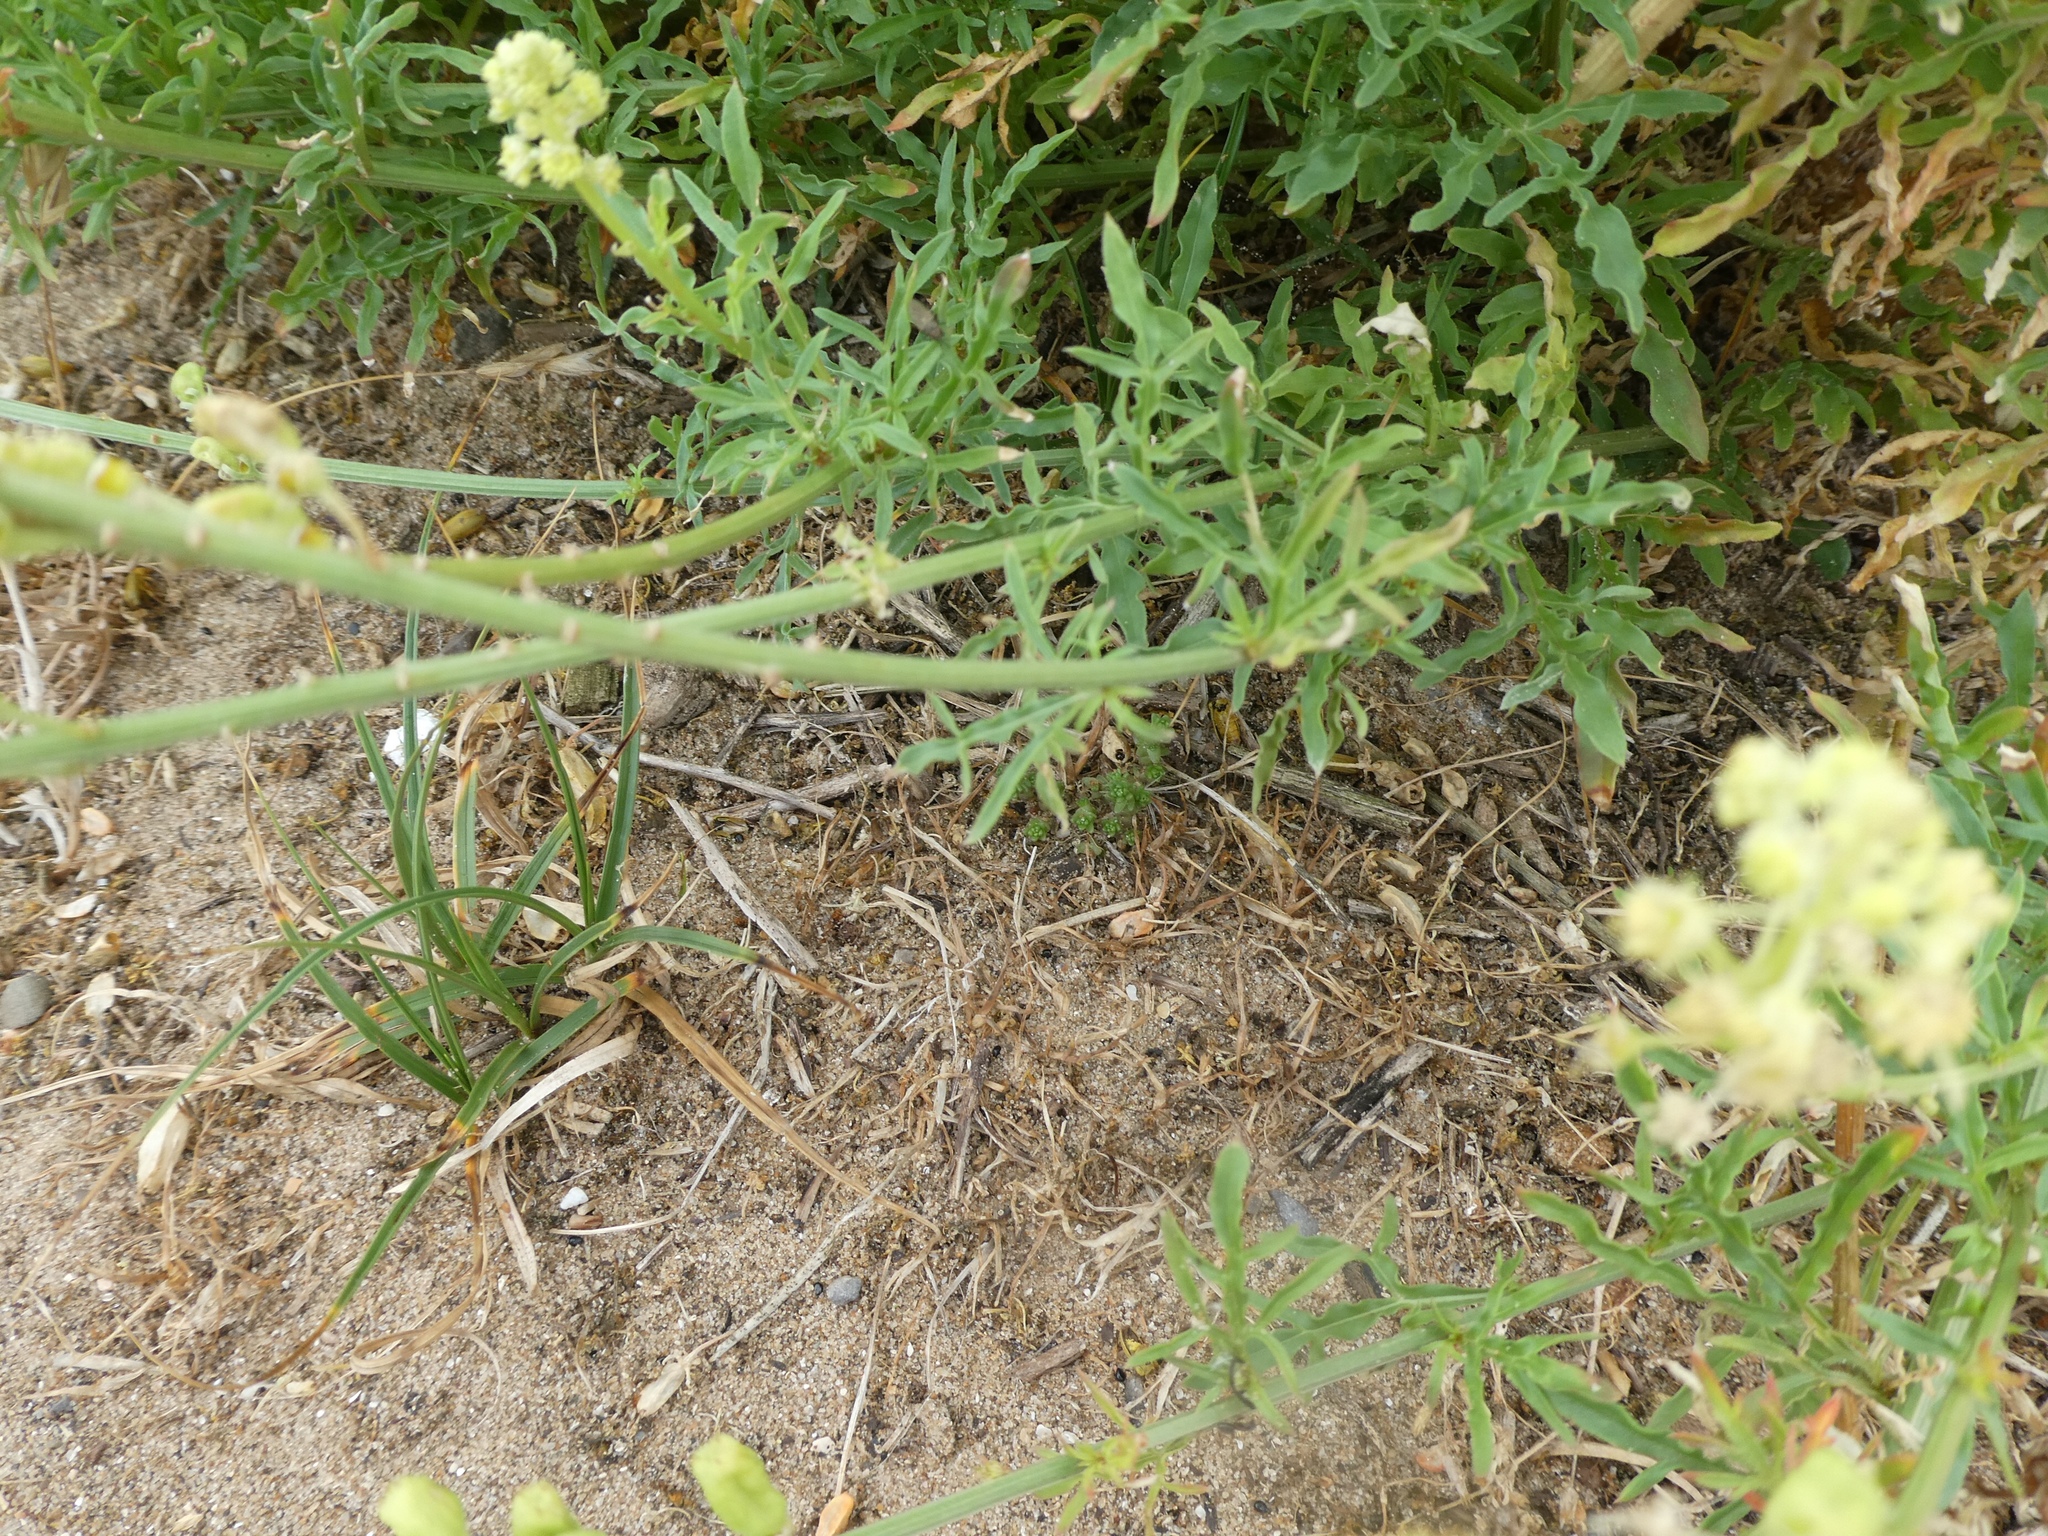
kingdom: Plantae
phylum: Tracheophyta
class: Magnoliopsida
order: Brassicales
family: Resedaceae
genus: Reseda
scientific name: Reseda lutea
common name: Wild mignonette
